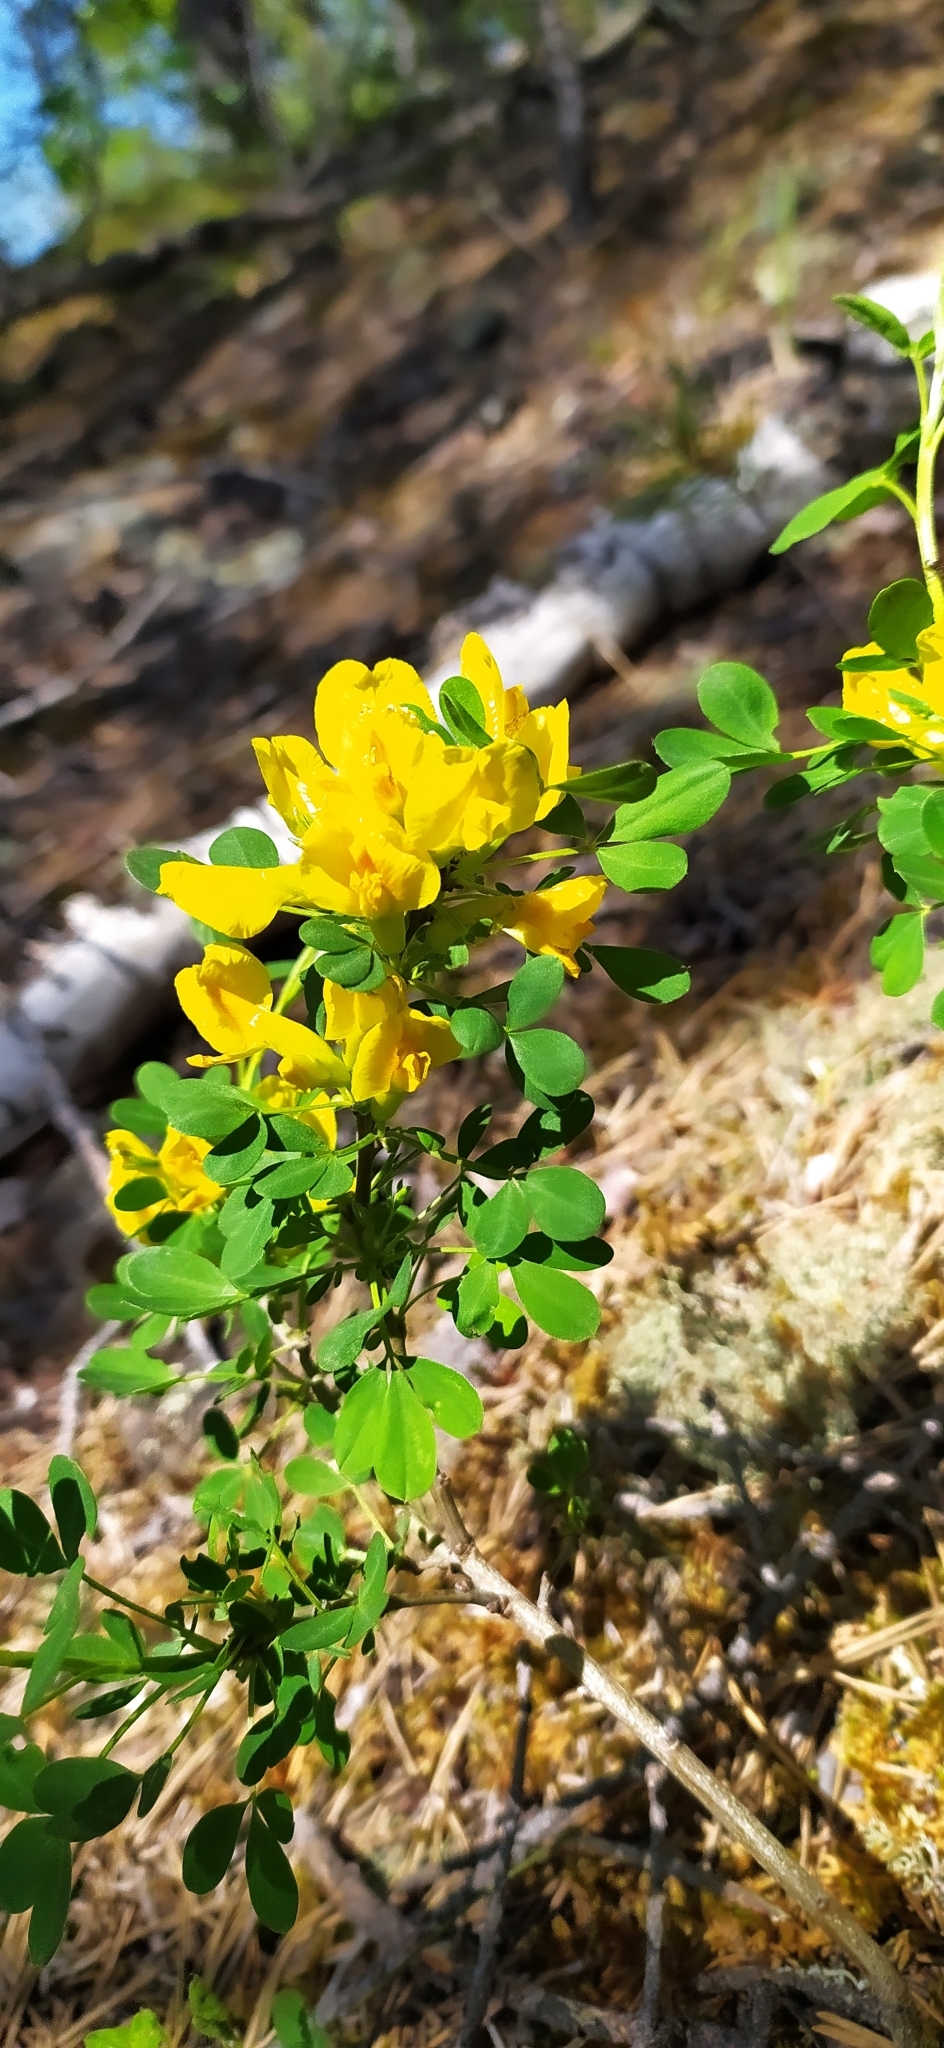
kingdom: Plantae
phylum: Tracheophyta
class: Magnoliopsida
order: Fabales
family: Fabaceae
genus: Chamaecytisus
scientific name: Chamaecytisus ruthenicus
